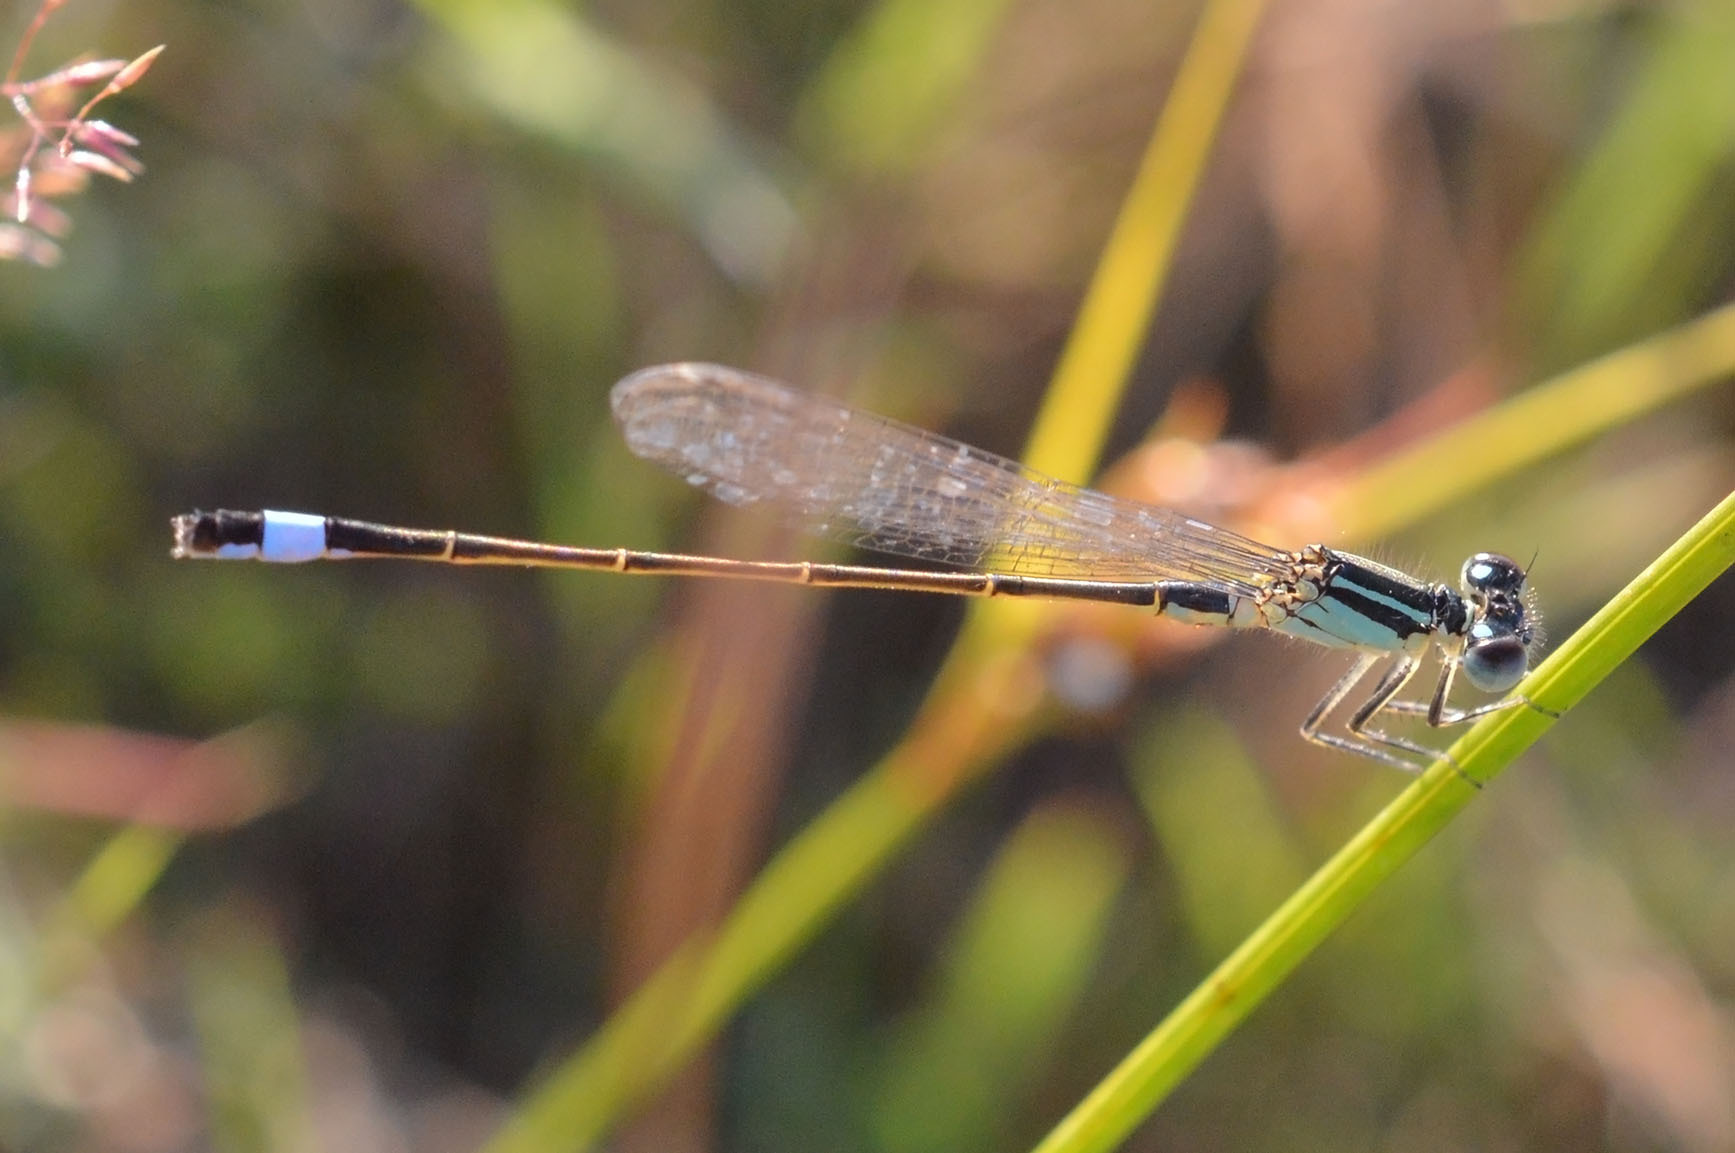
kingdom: Animalia
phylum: Arthropoda
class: Insecta
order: Odonata
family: Coenagrionidae
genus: Ischnura
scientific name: Ischnura elegans
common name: Blue-tailed damselfly
